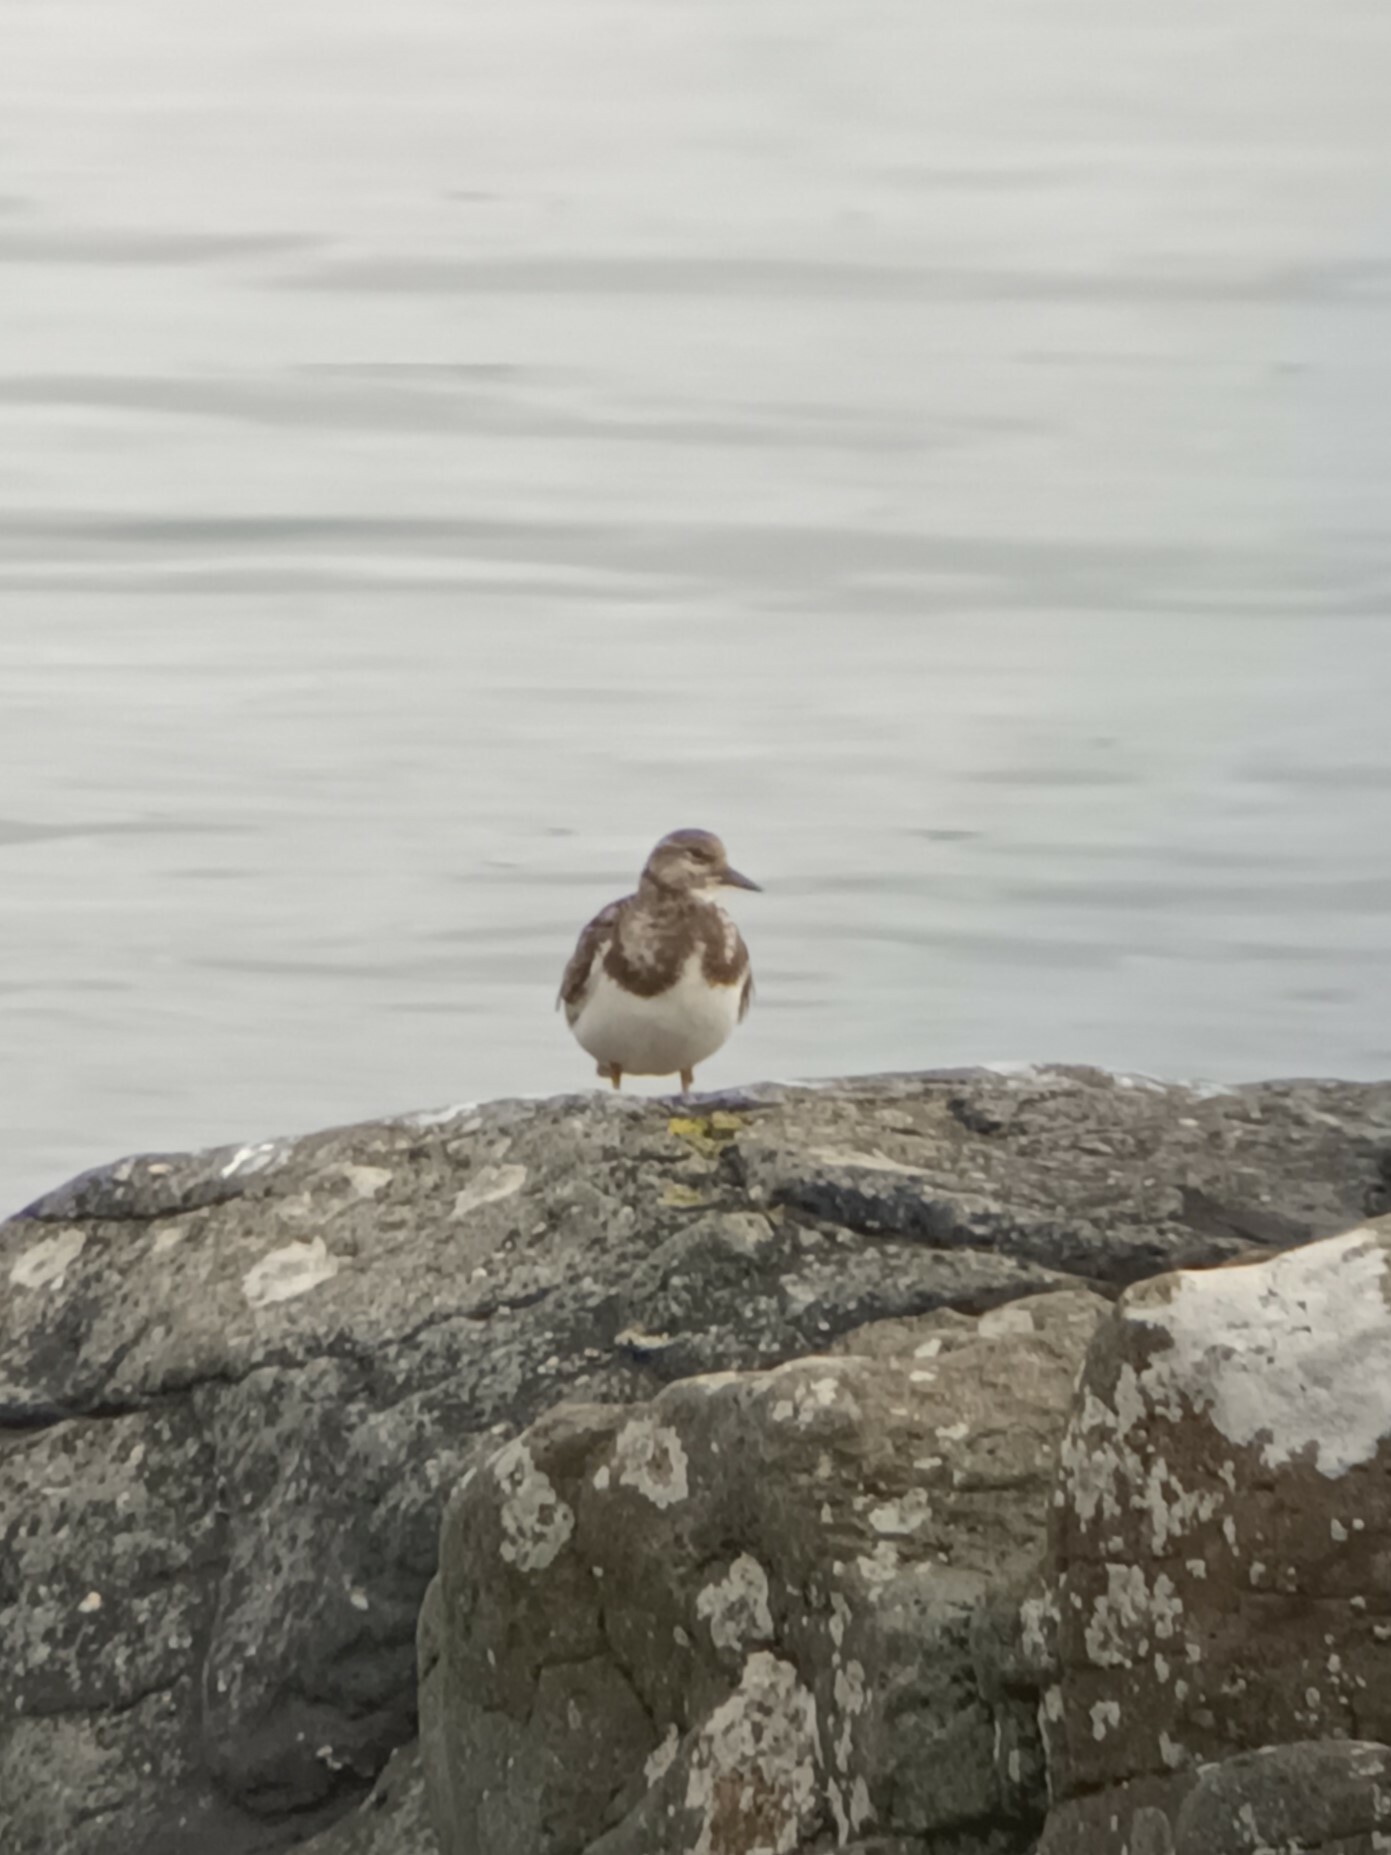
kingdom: Animalia
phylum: Chordata
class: Aves
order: Charadriiformes
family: Scolopacidae
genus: Arenaria
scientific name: Arenaria interpres
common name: Ruddy turnstone
